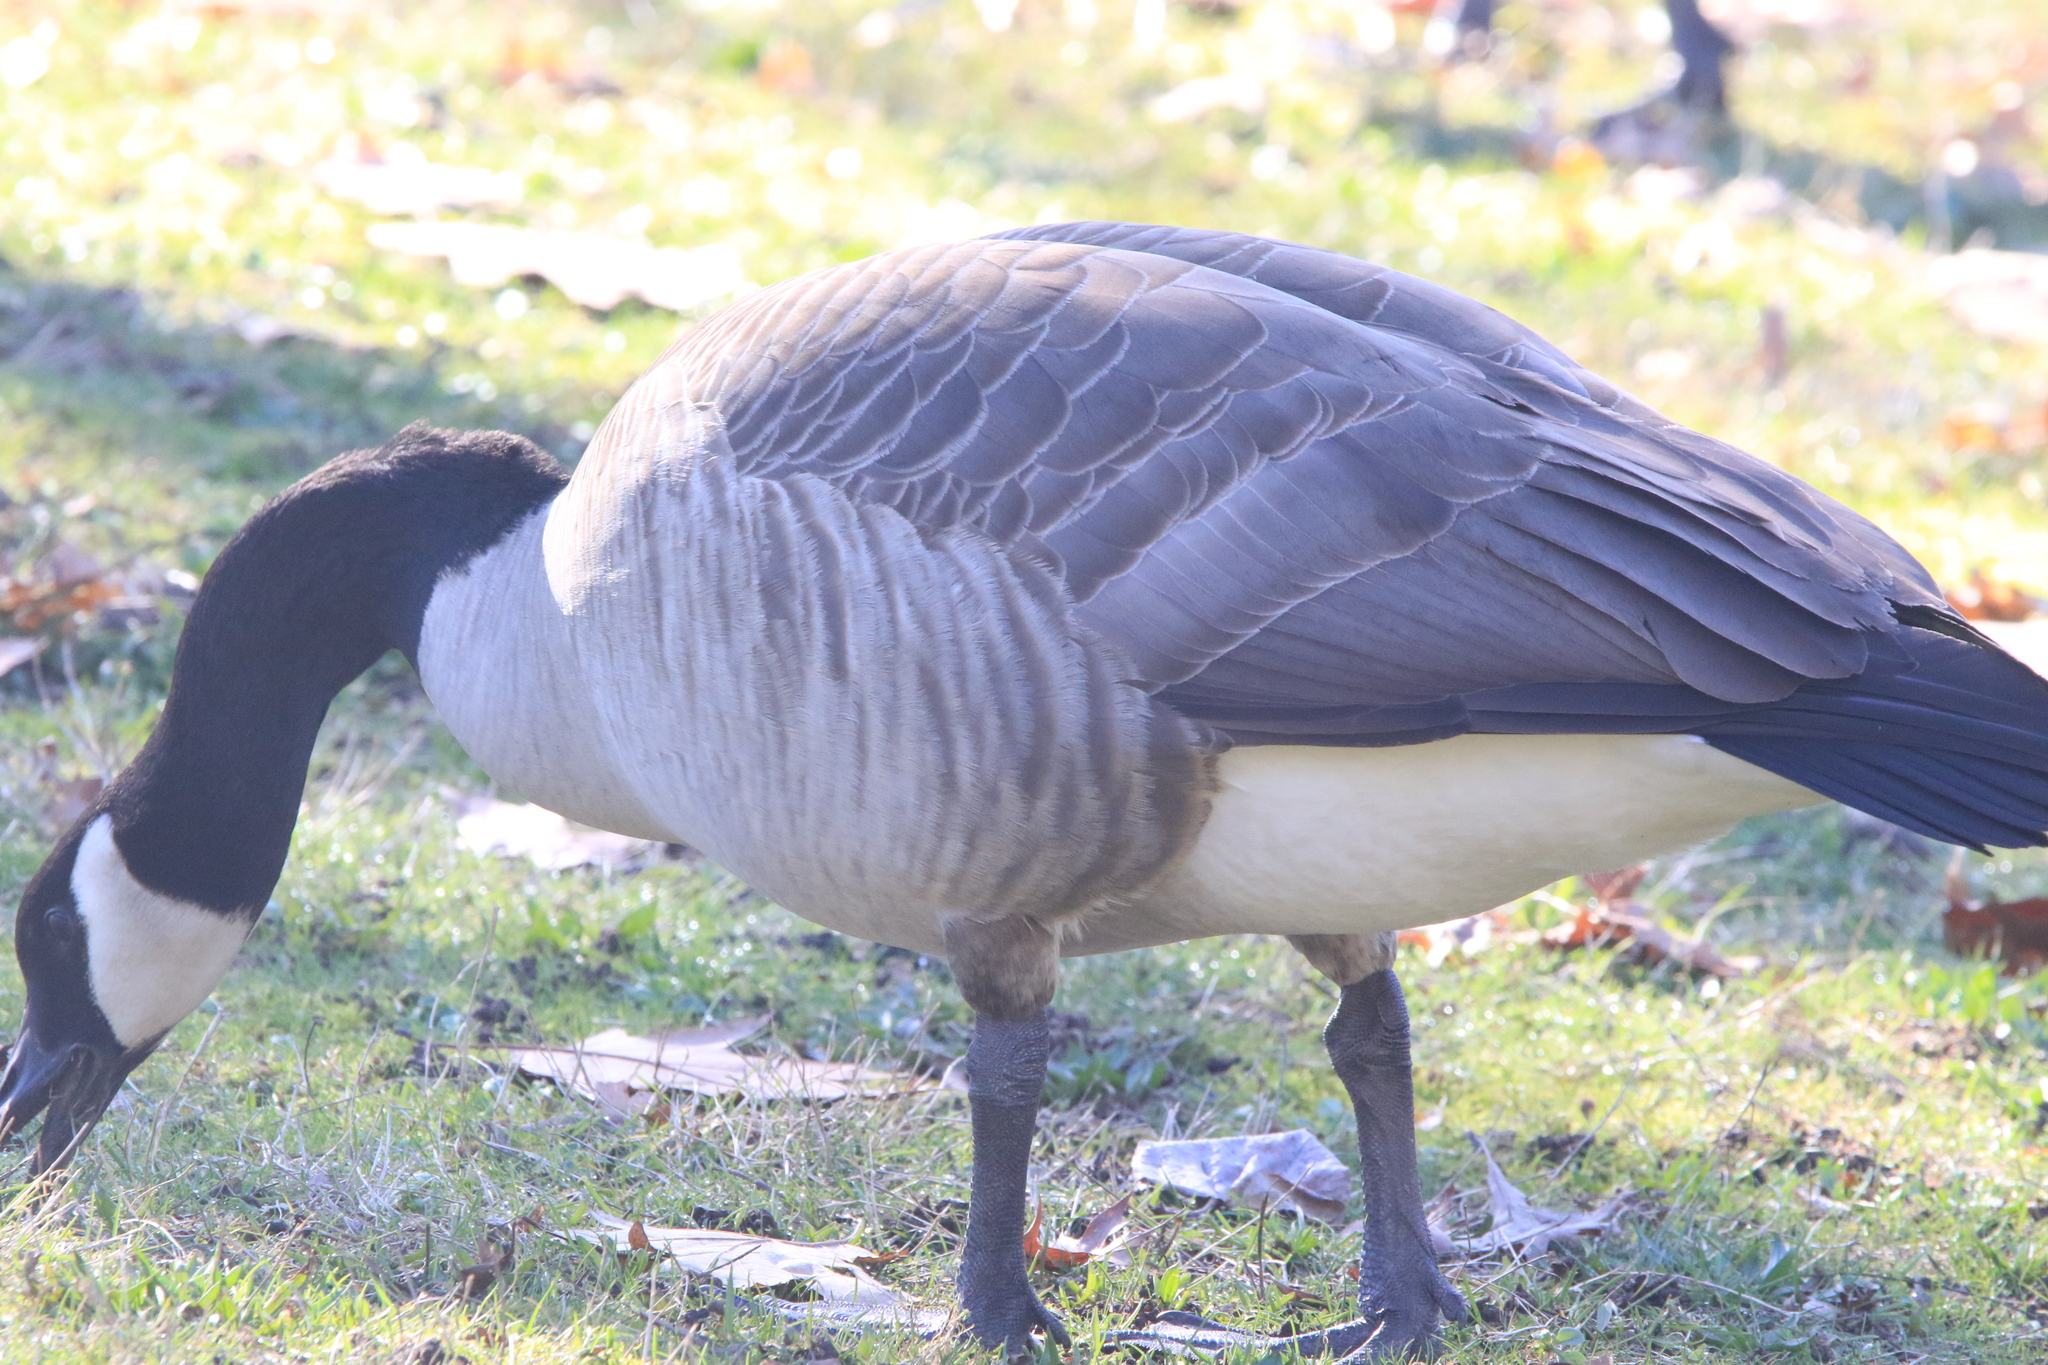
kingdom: Animalia
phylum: Chordata
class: Aves
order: Anseriformes
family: Anatidae
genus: Branta
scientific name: Branta canadensis
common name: Canada goose
